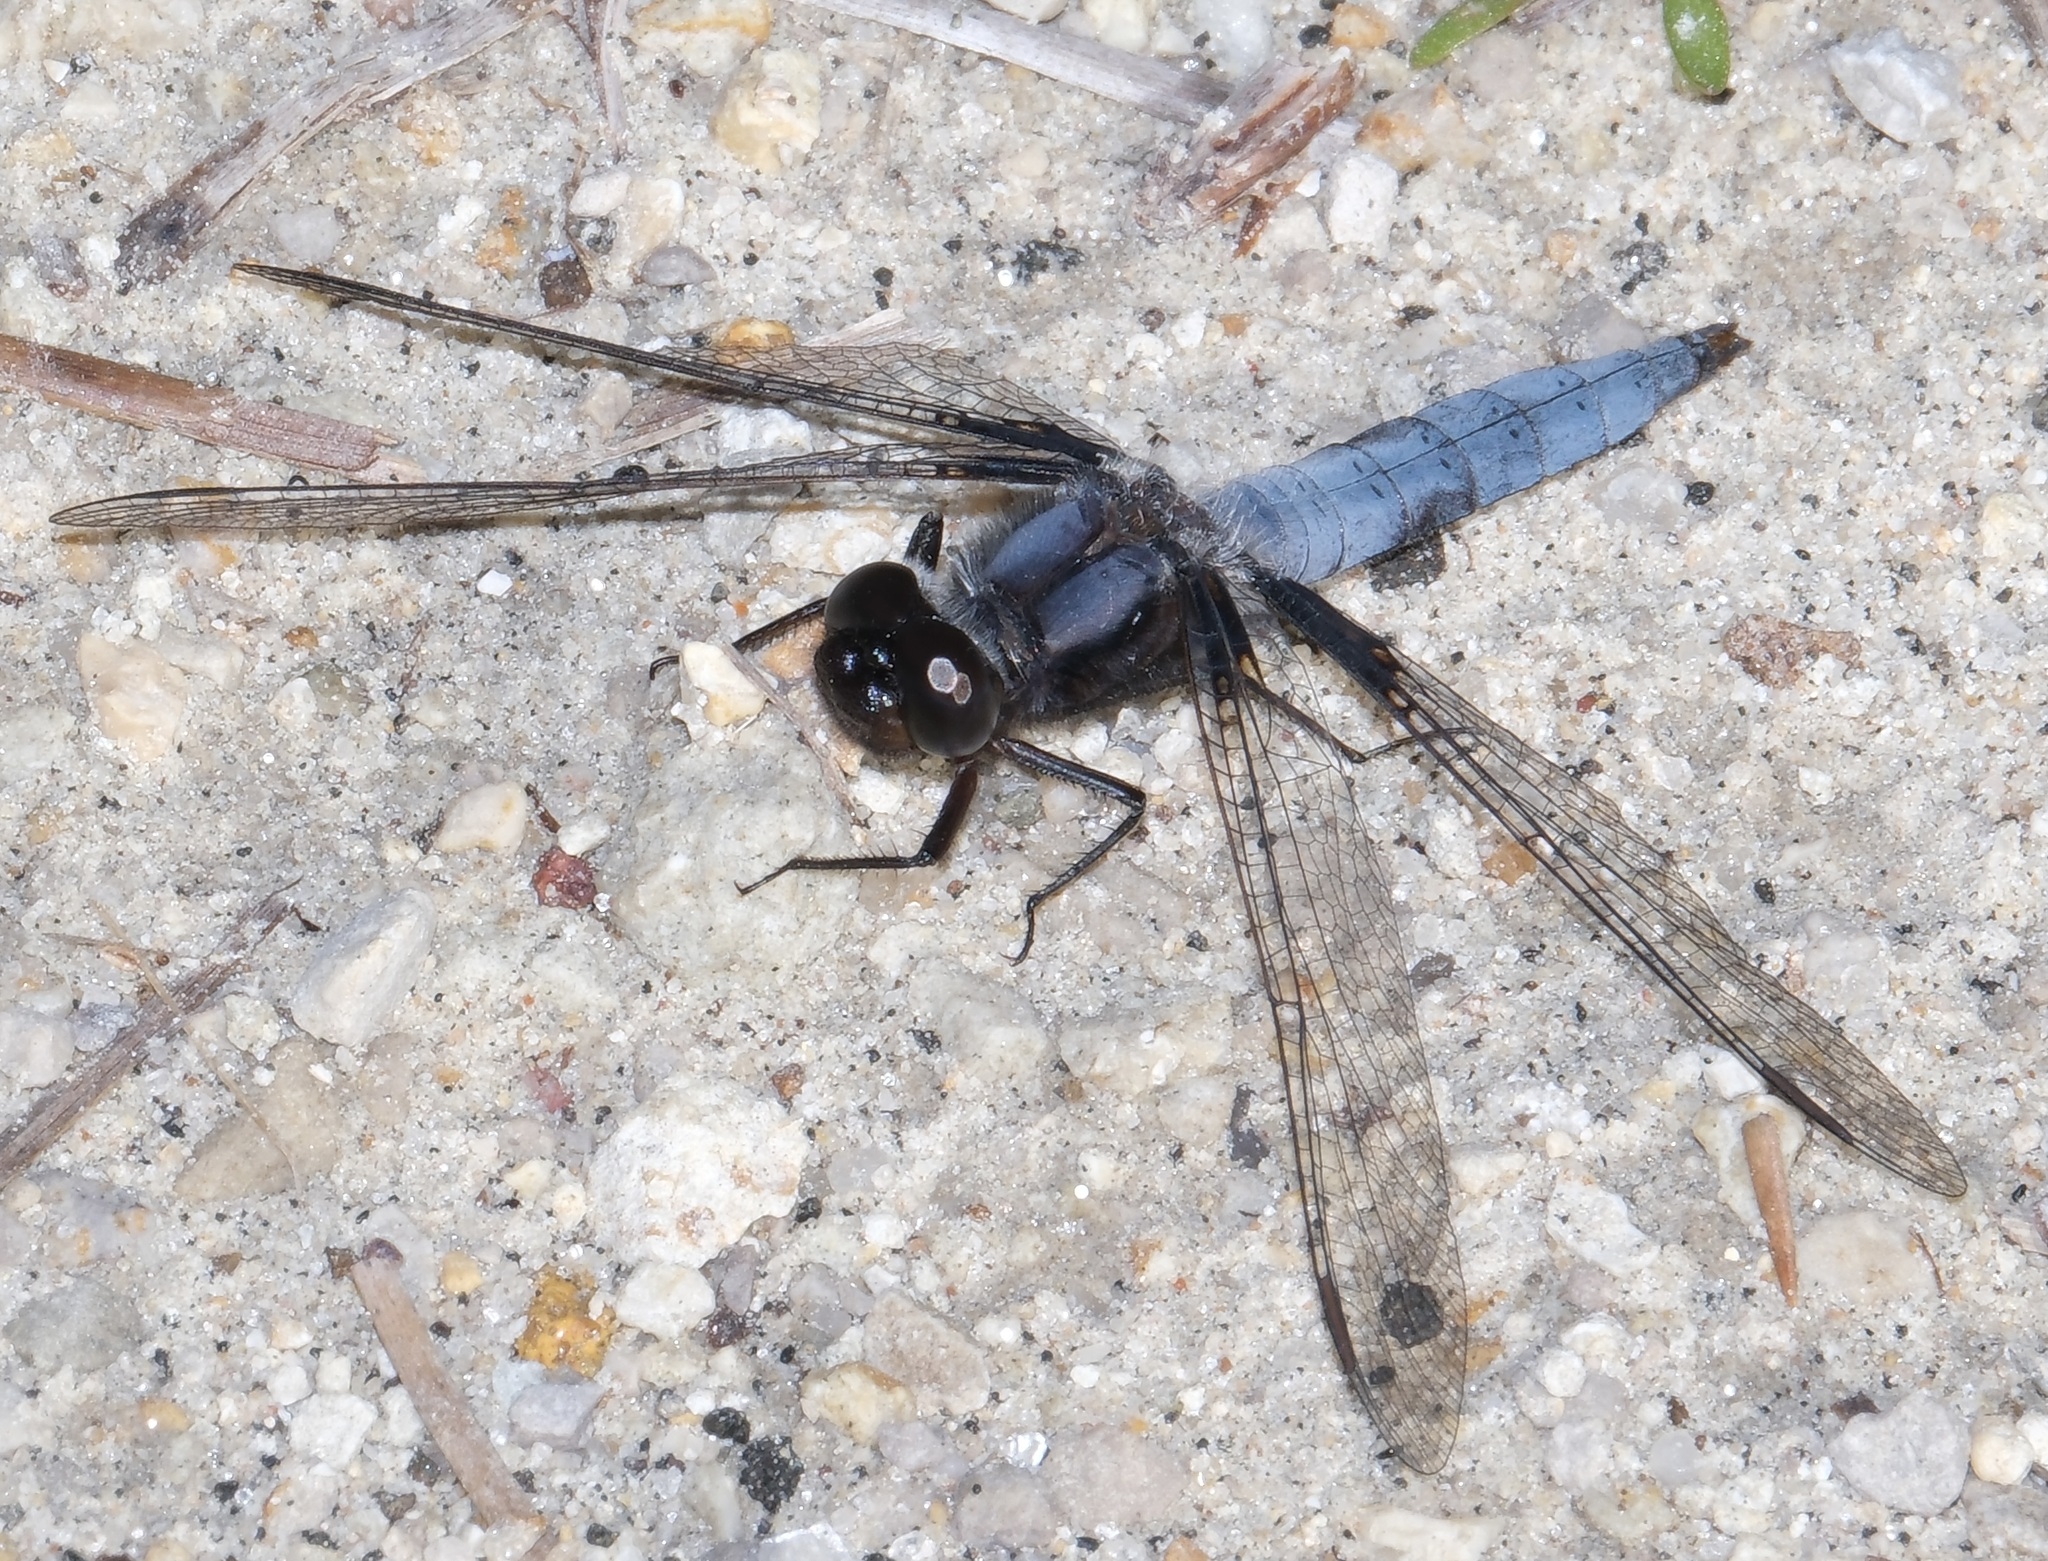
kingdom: Animalia
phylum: Arthropoda
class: Insecta
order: Odonata
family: Libellulidae
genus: Ladona
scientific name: Ladona deplanata
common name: Blue corporal
